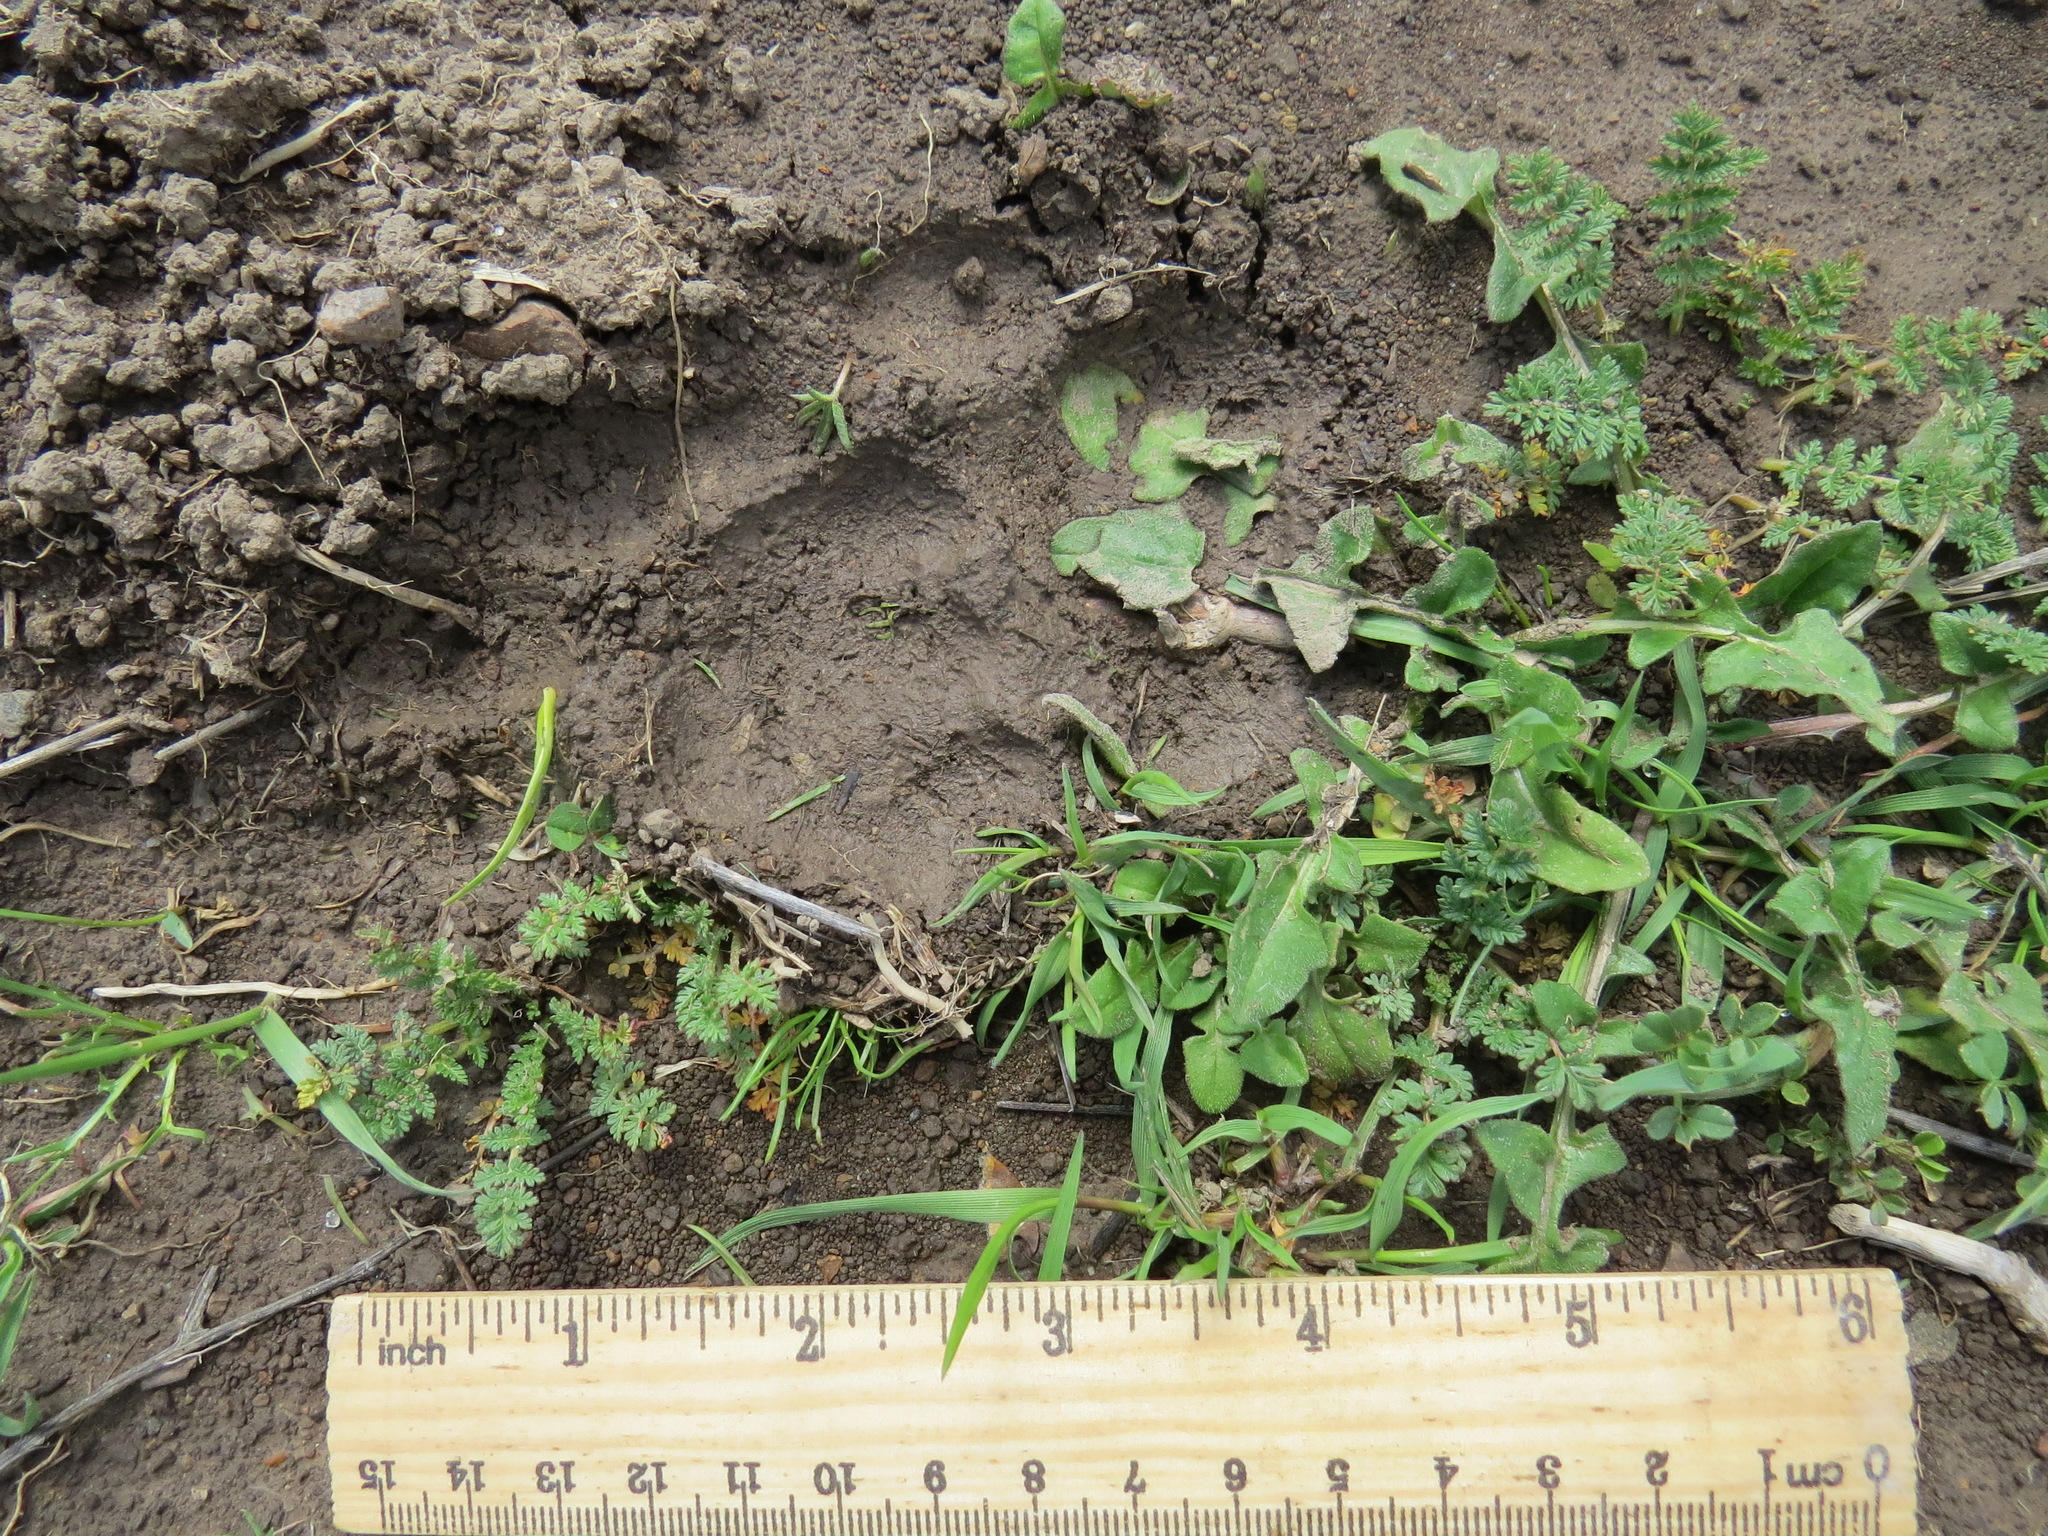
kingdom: Animalia
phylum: Chordata
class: Mammalia
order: Carnivora
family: Felidae
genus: Puma
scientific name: Puma concolor
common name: Puma
